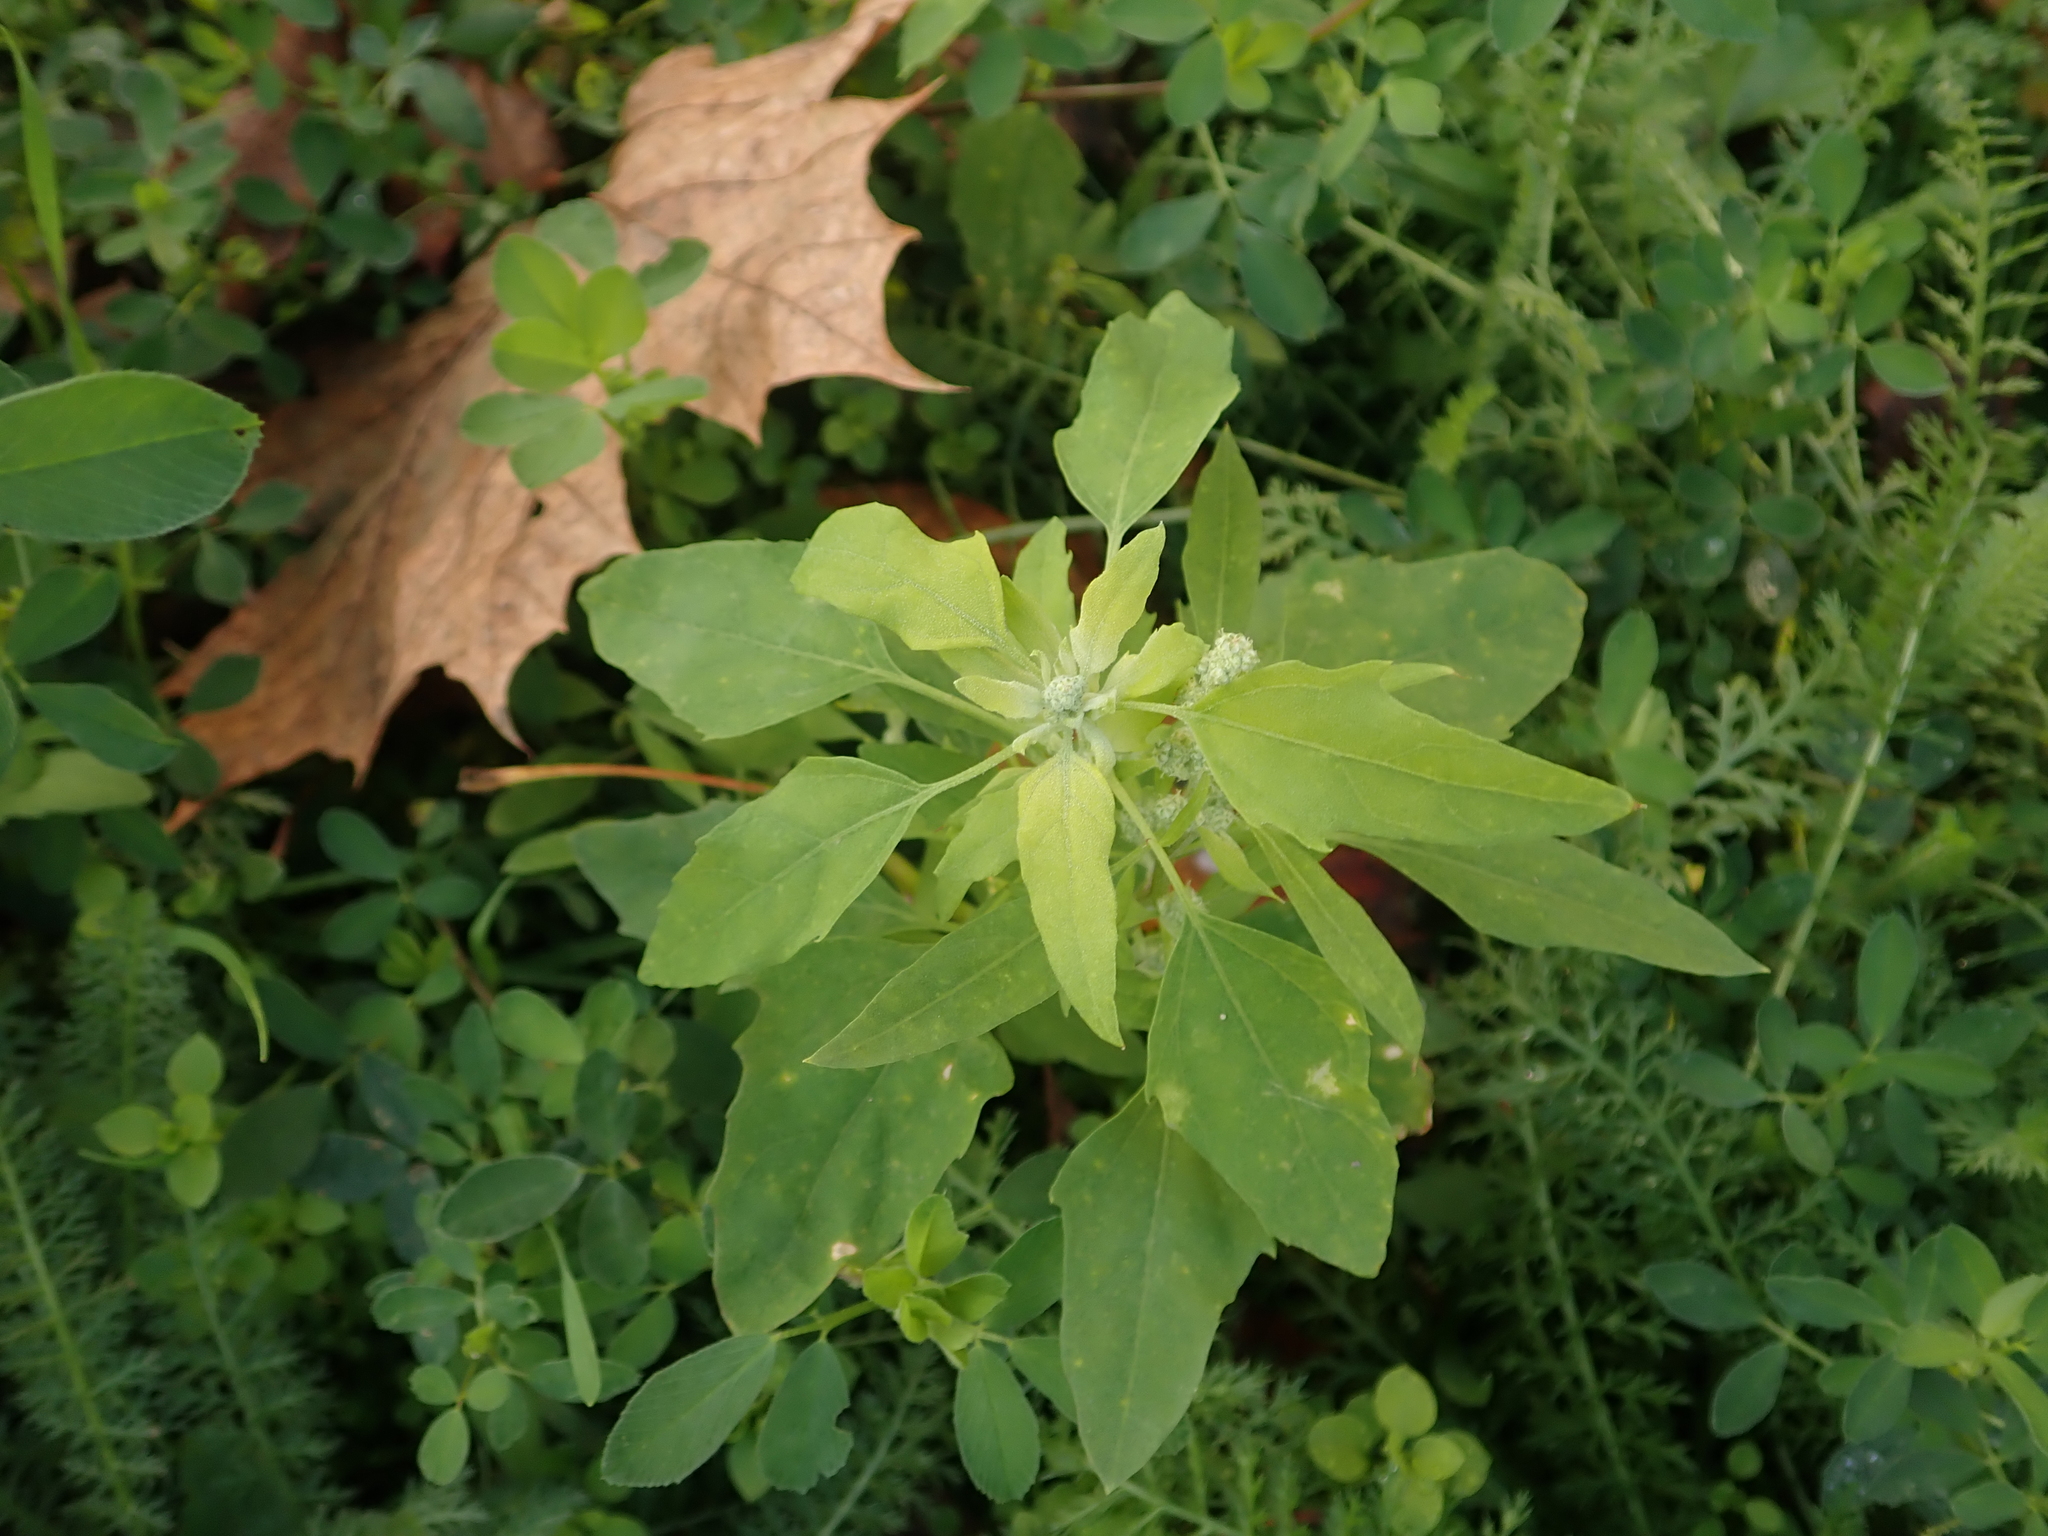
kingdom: Plantae
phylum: Tracheophyta
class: Magnoliopsida
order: Caryophyllales
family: Amaranthaceae
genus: Chenopodium
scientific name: Chenopodium album
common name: Fat-hen
